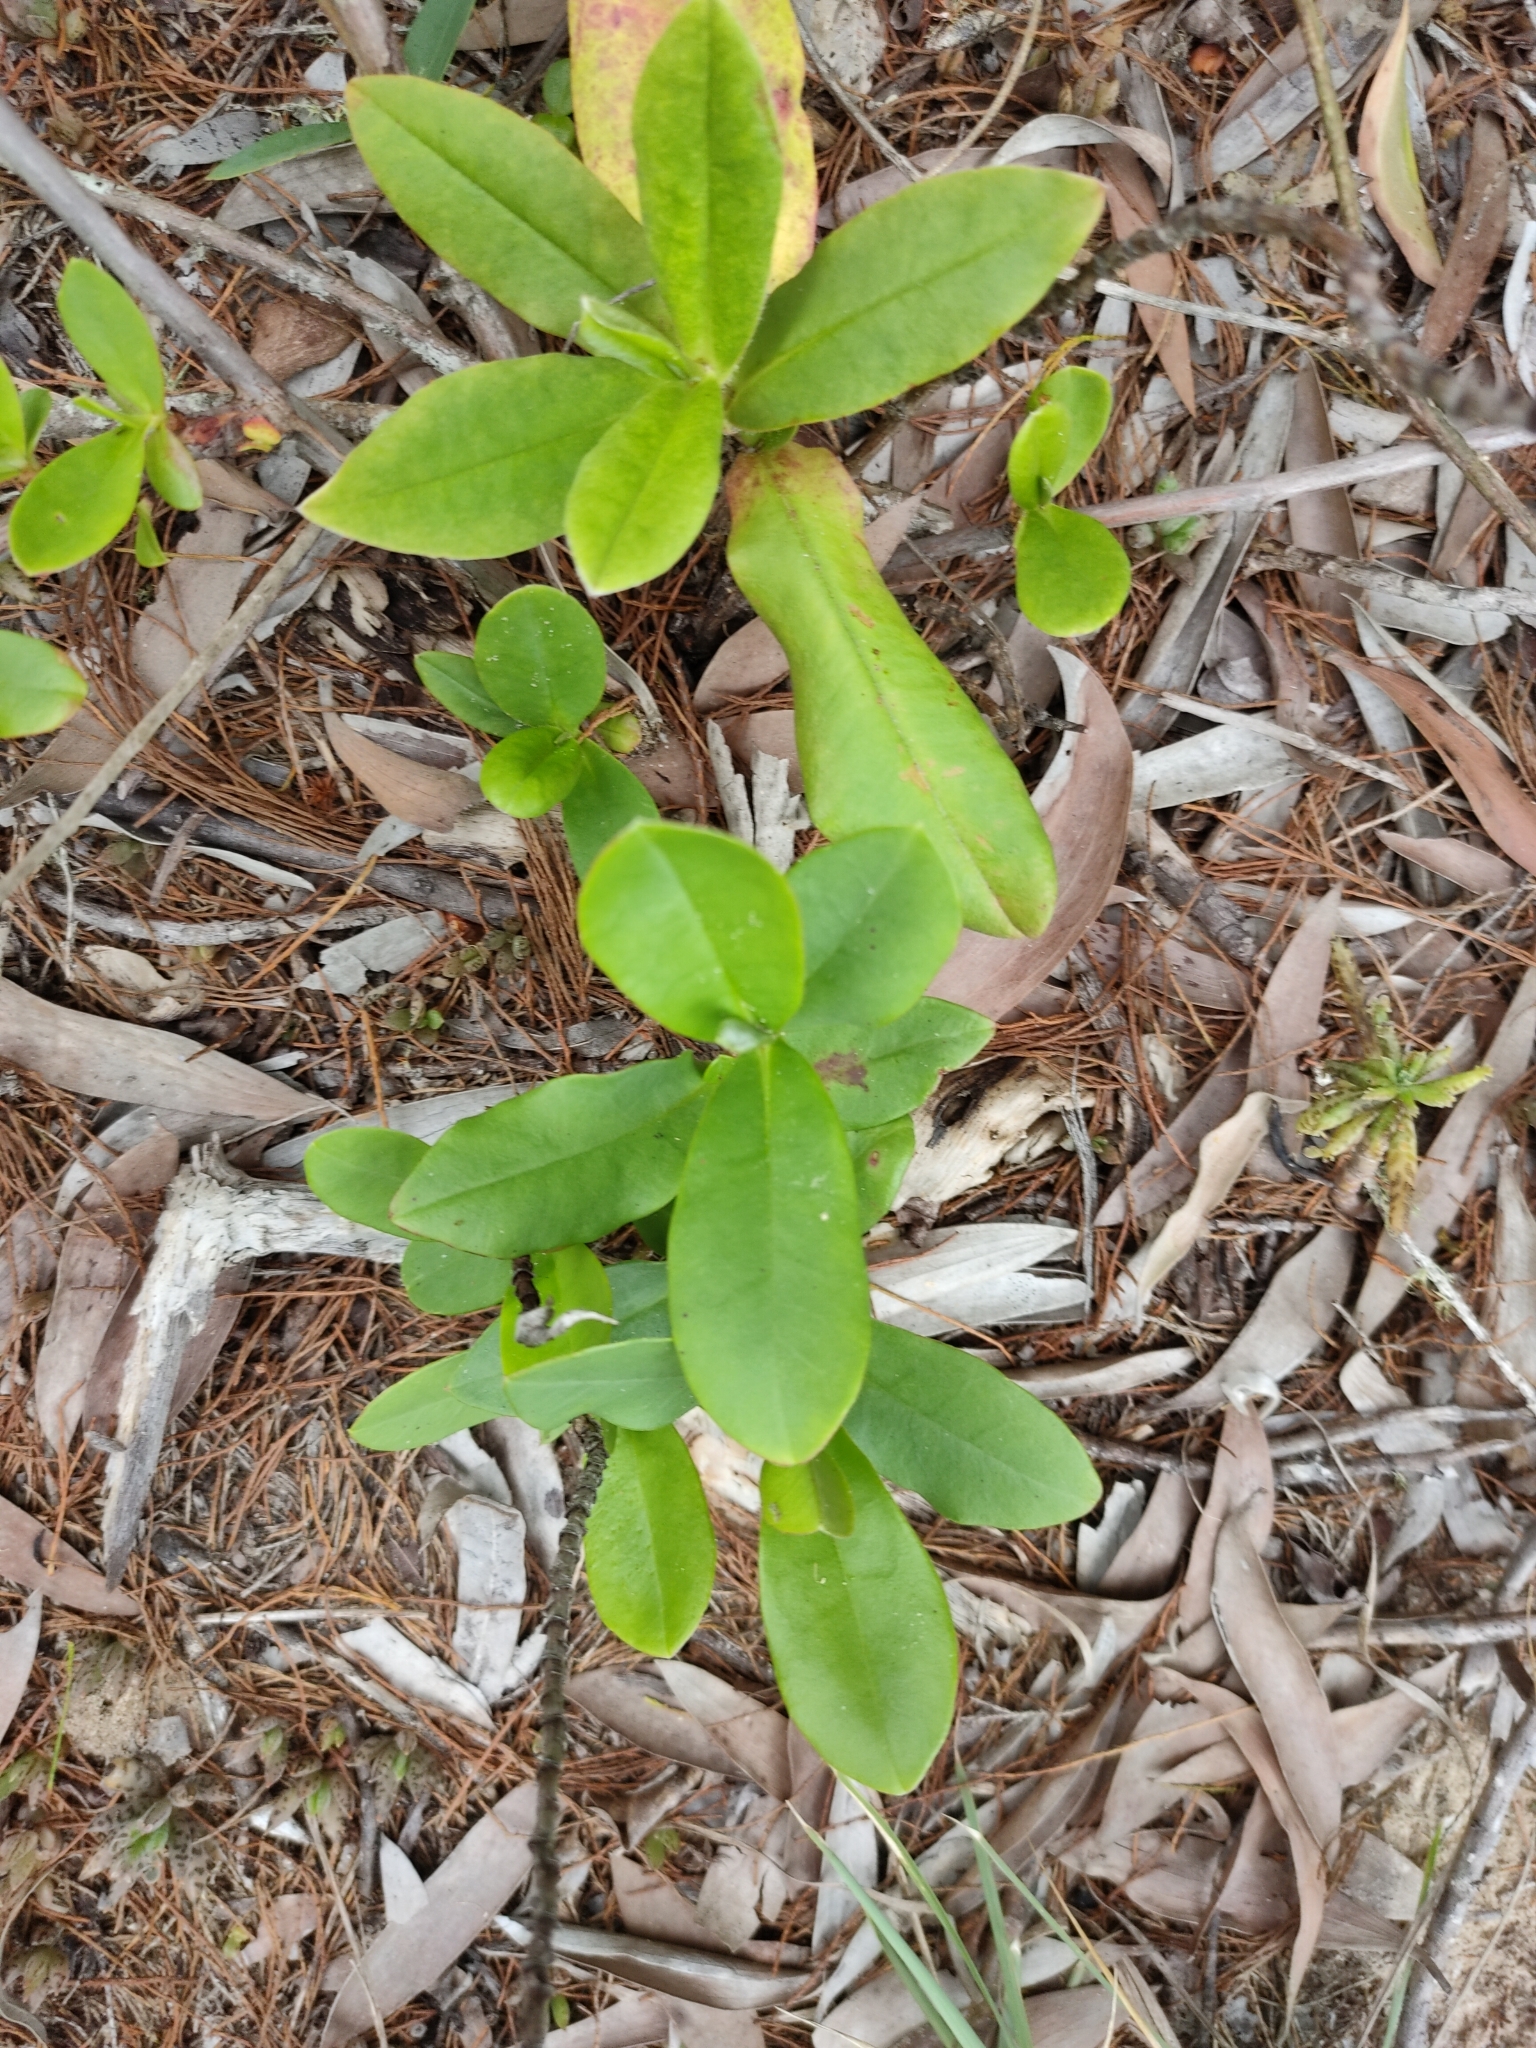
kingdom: Plantae
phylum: Tracheophyta
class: Magnoliopsida
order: Dilleniales
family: Dilleniaceae
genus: Hibbertia
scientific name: Hibbertia scandens
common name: Climbing guinea-flower
